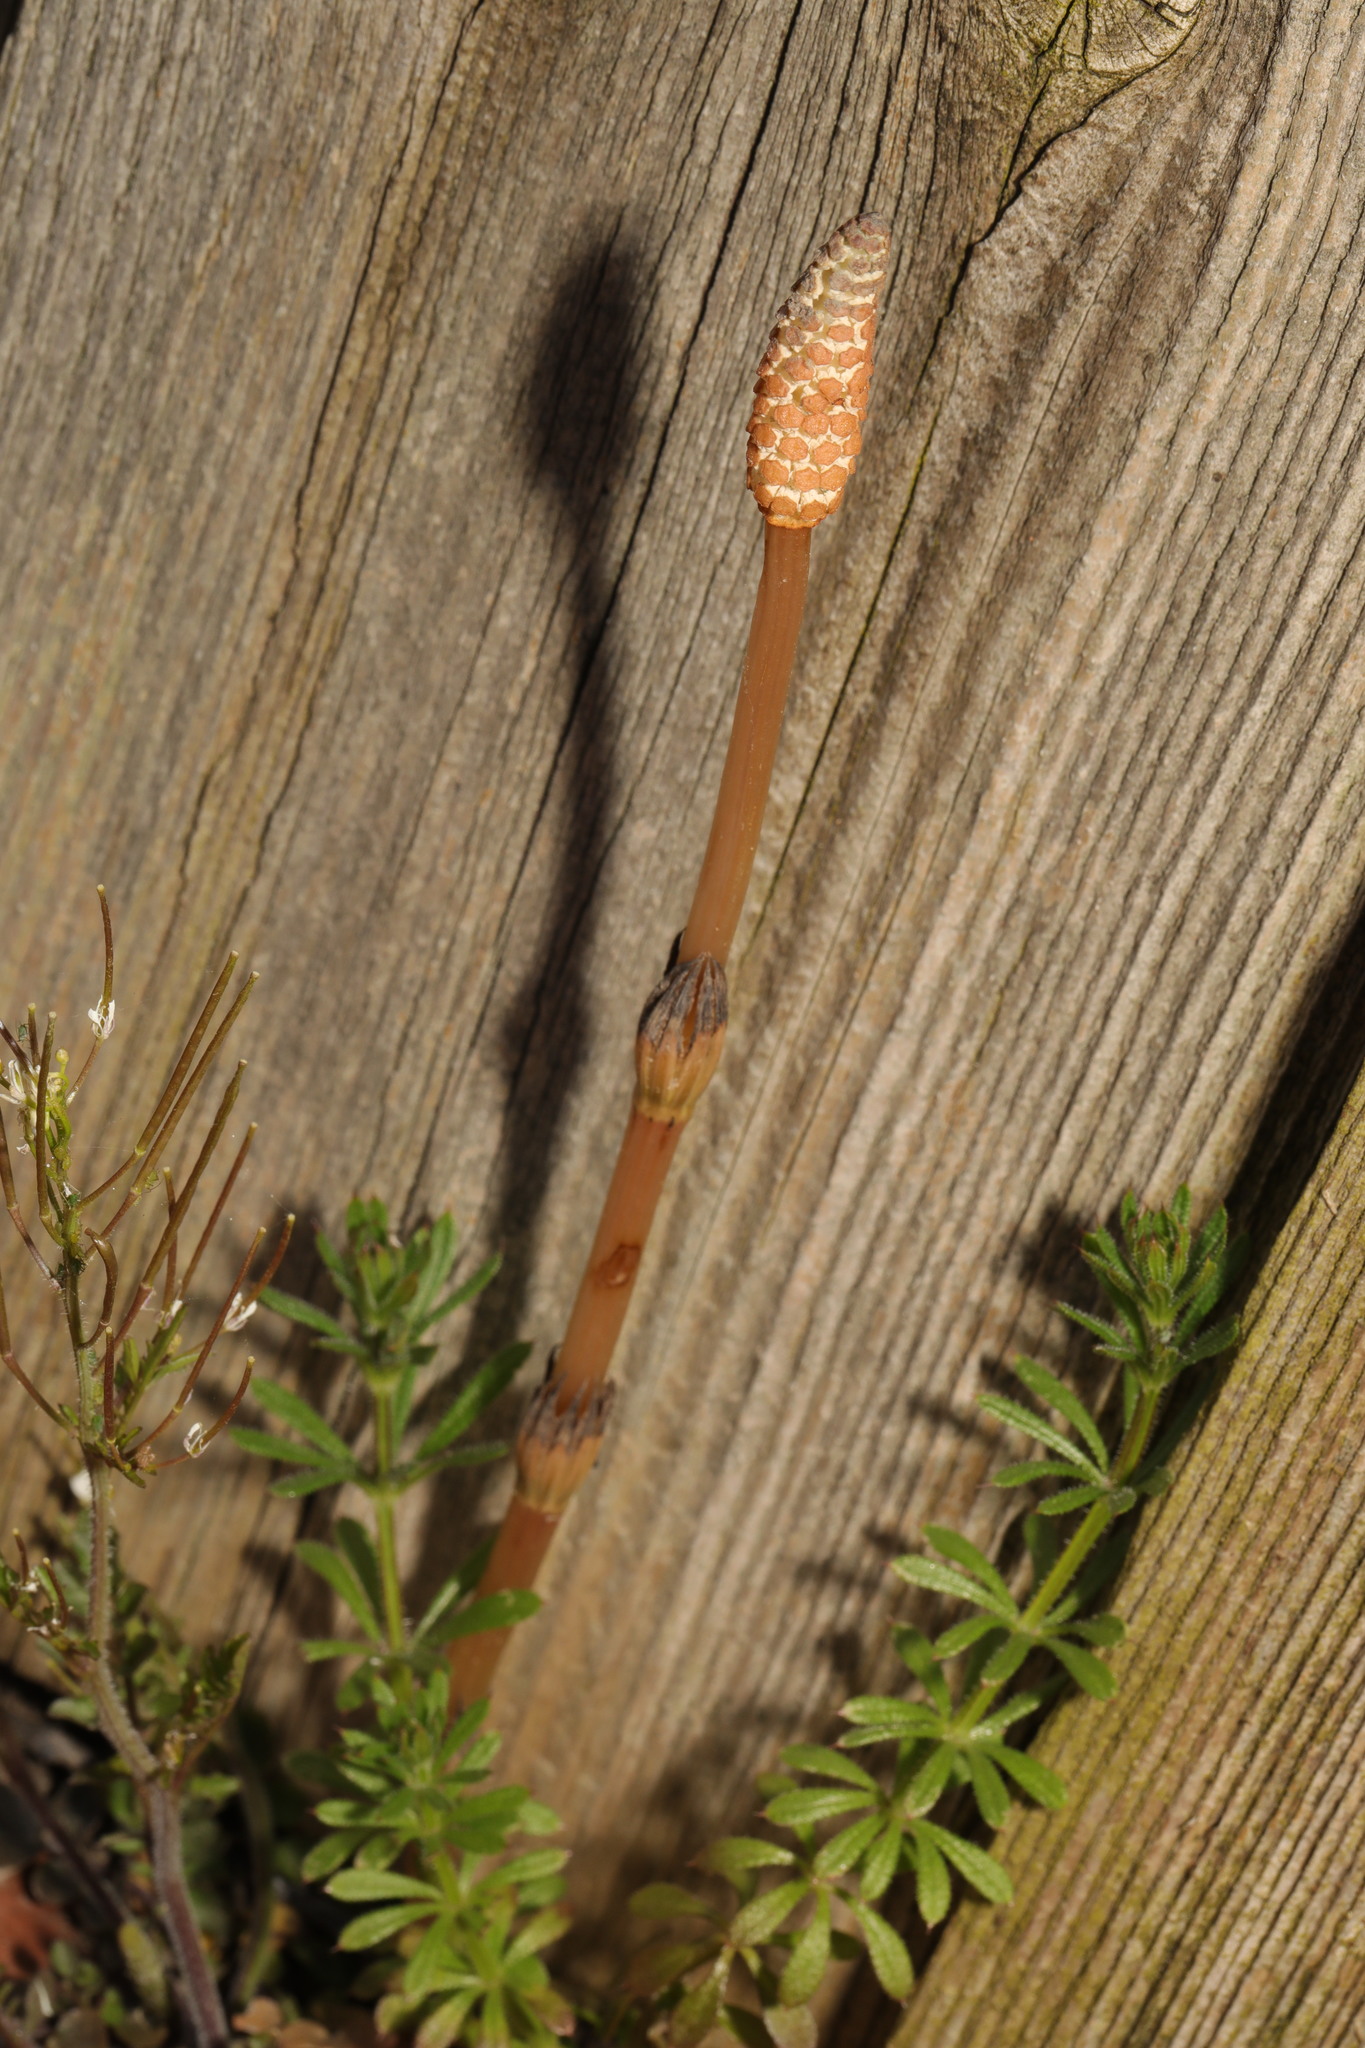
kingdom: Plantae
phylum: Tracheophyta
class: Polypodiopsida
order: Equisetales
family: Equisetaceae
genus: Equisetum
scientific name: Equisetum arvense
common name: Field horsetail
